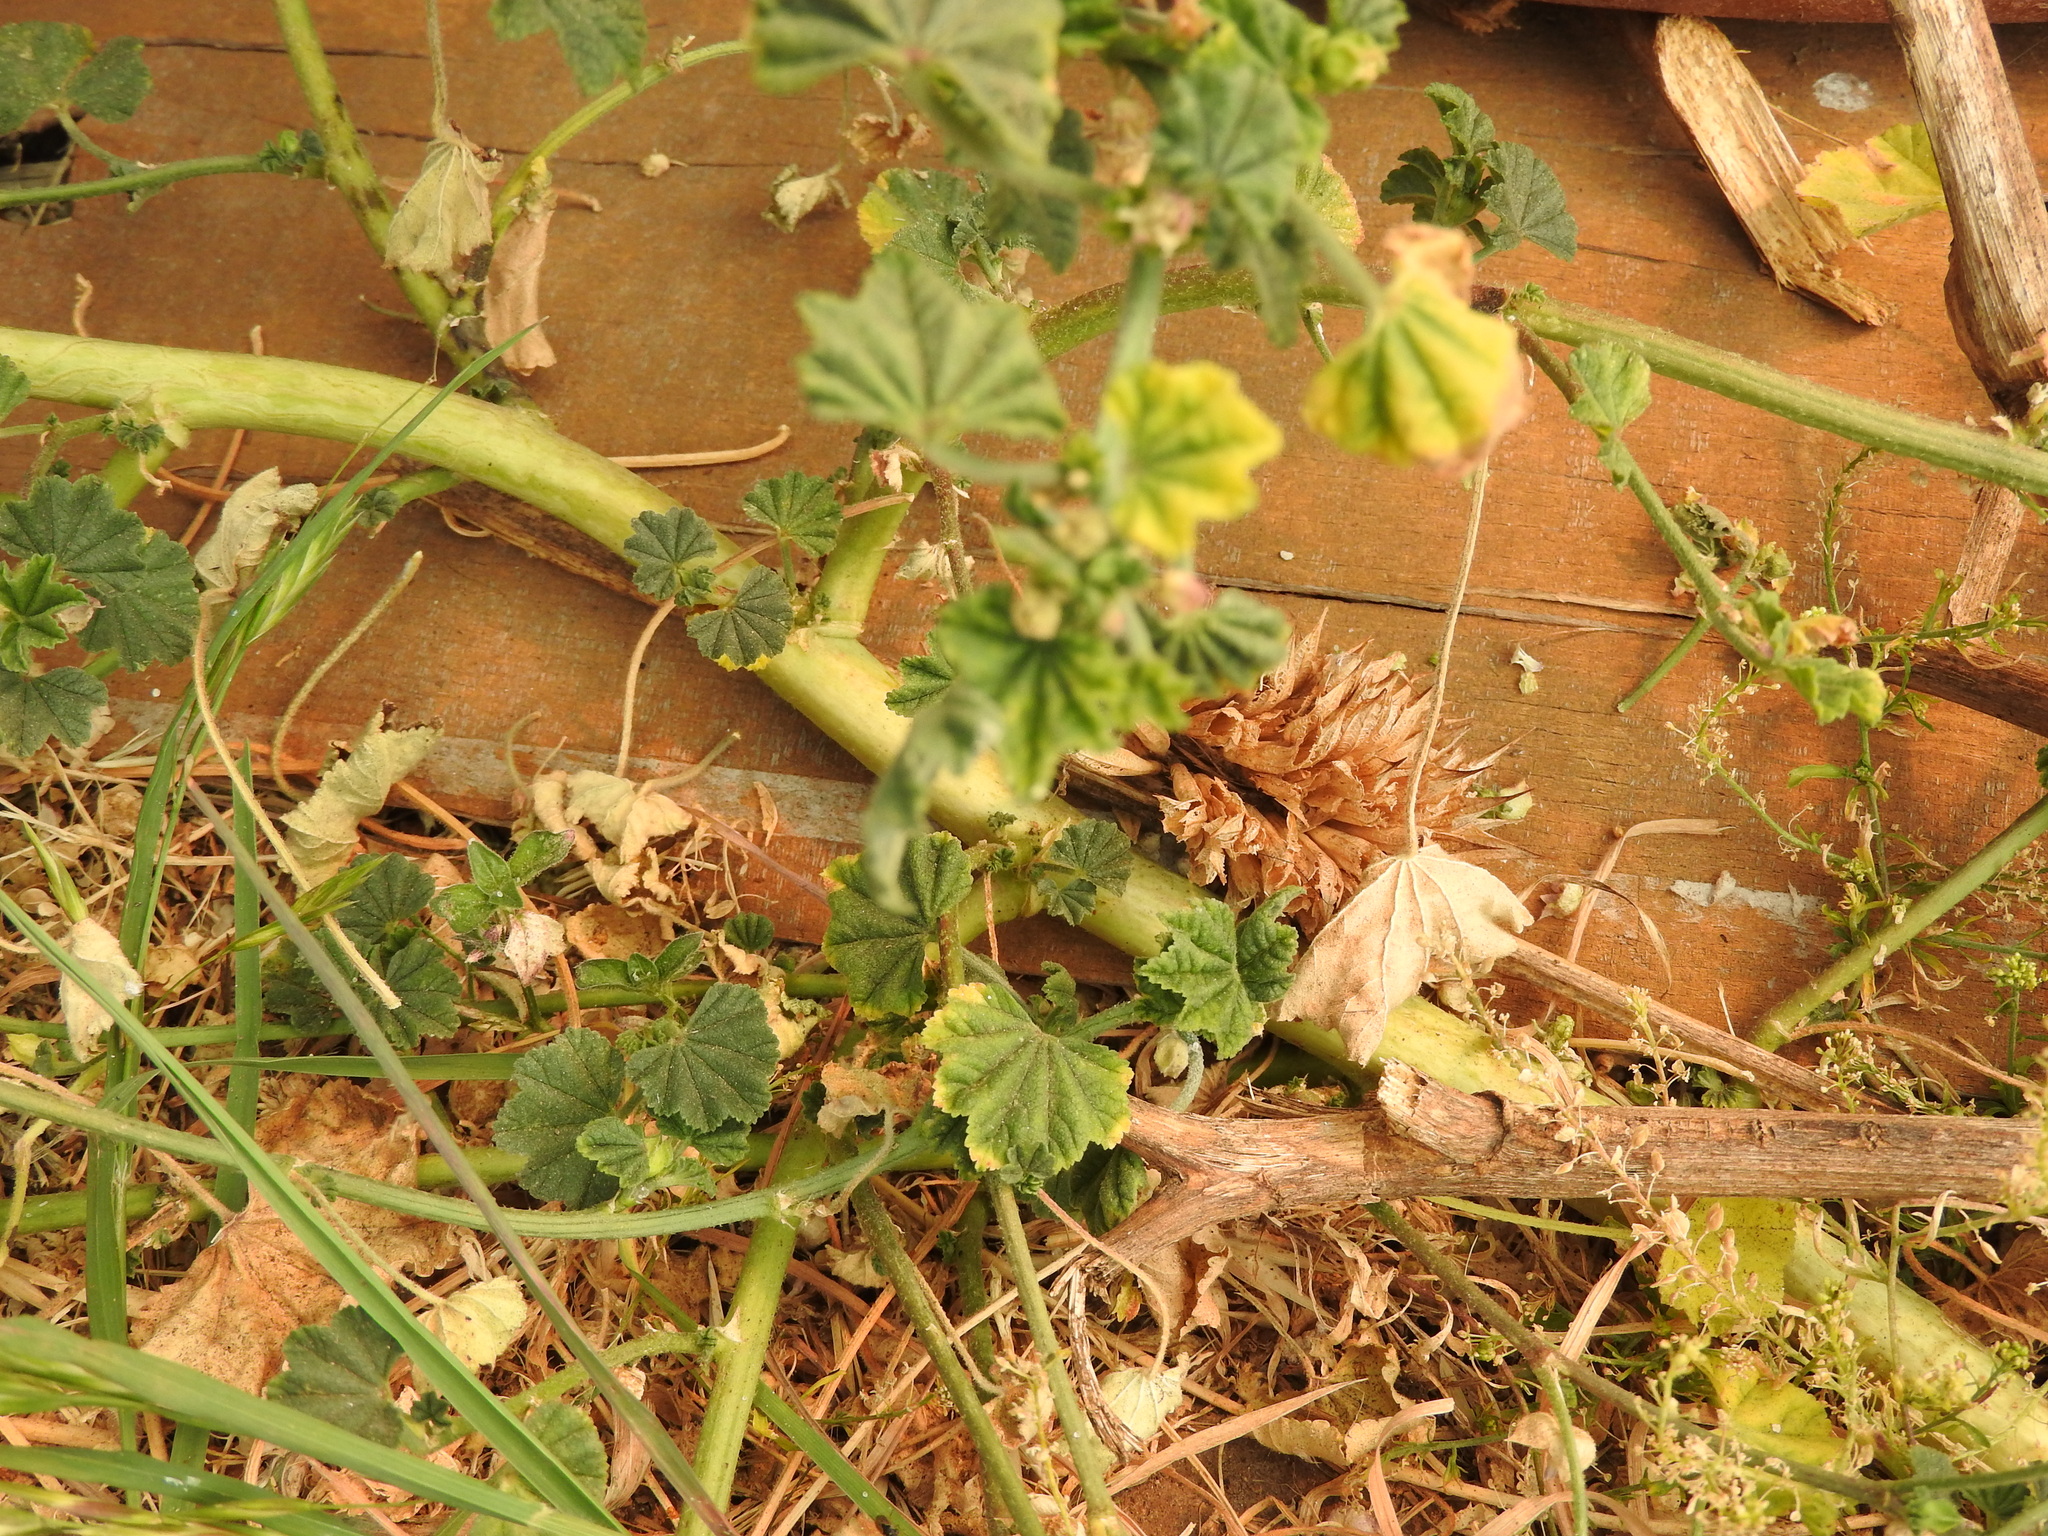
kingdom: Plantae
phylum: Tracheophyta
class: Magnoliopsida
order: Malvales
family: Malvaceae
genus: Malva
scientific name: Malva parviflora
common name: Least mallow
